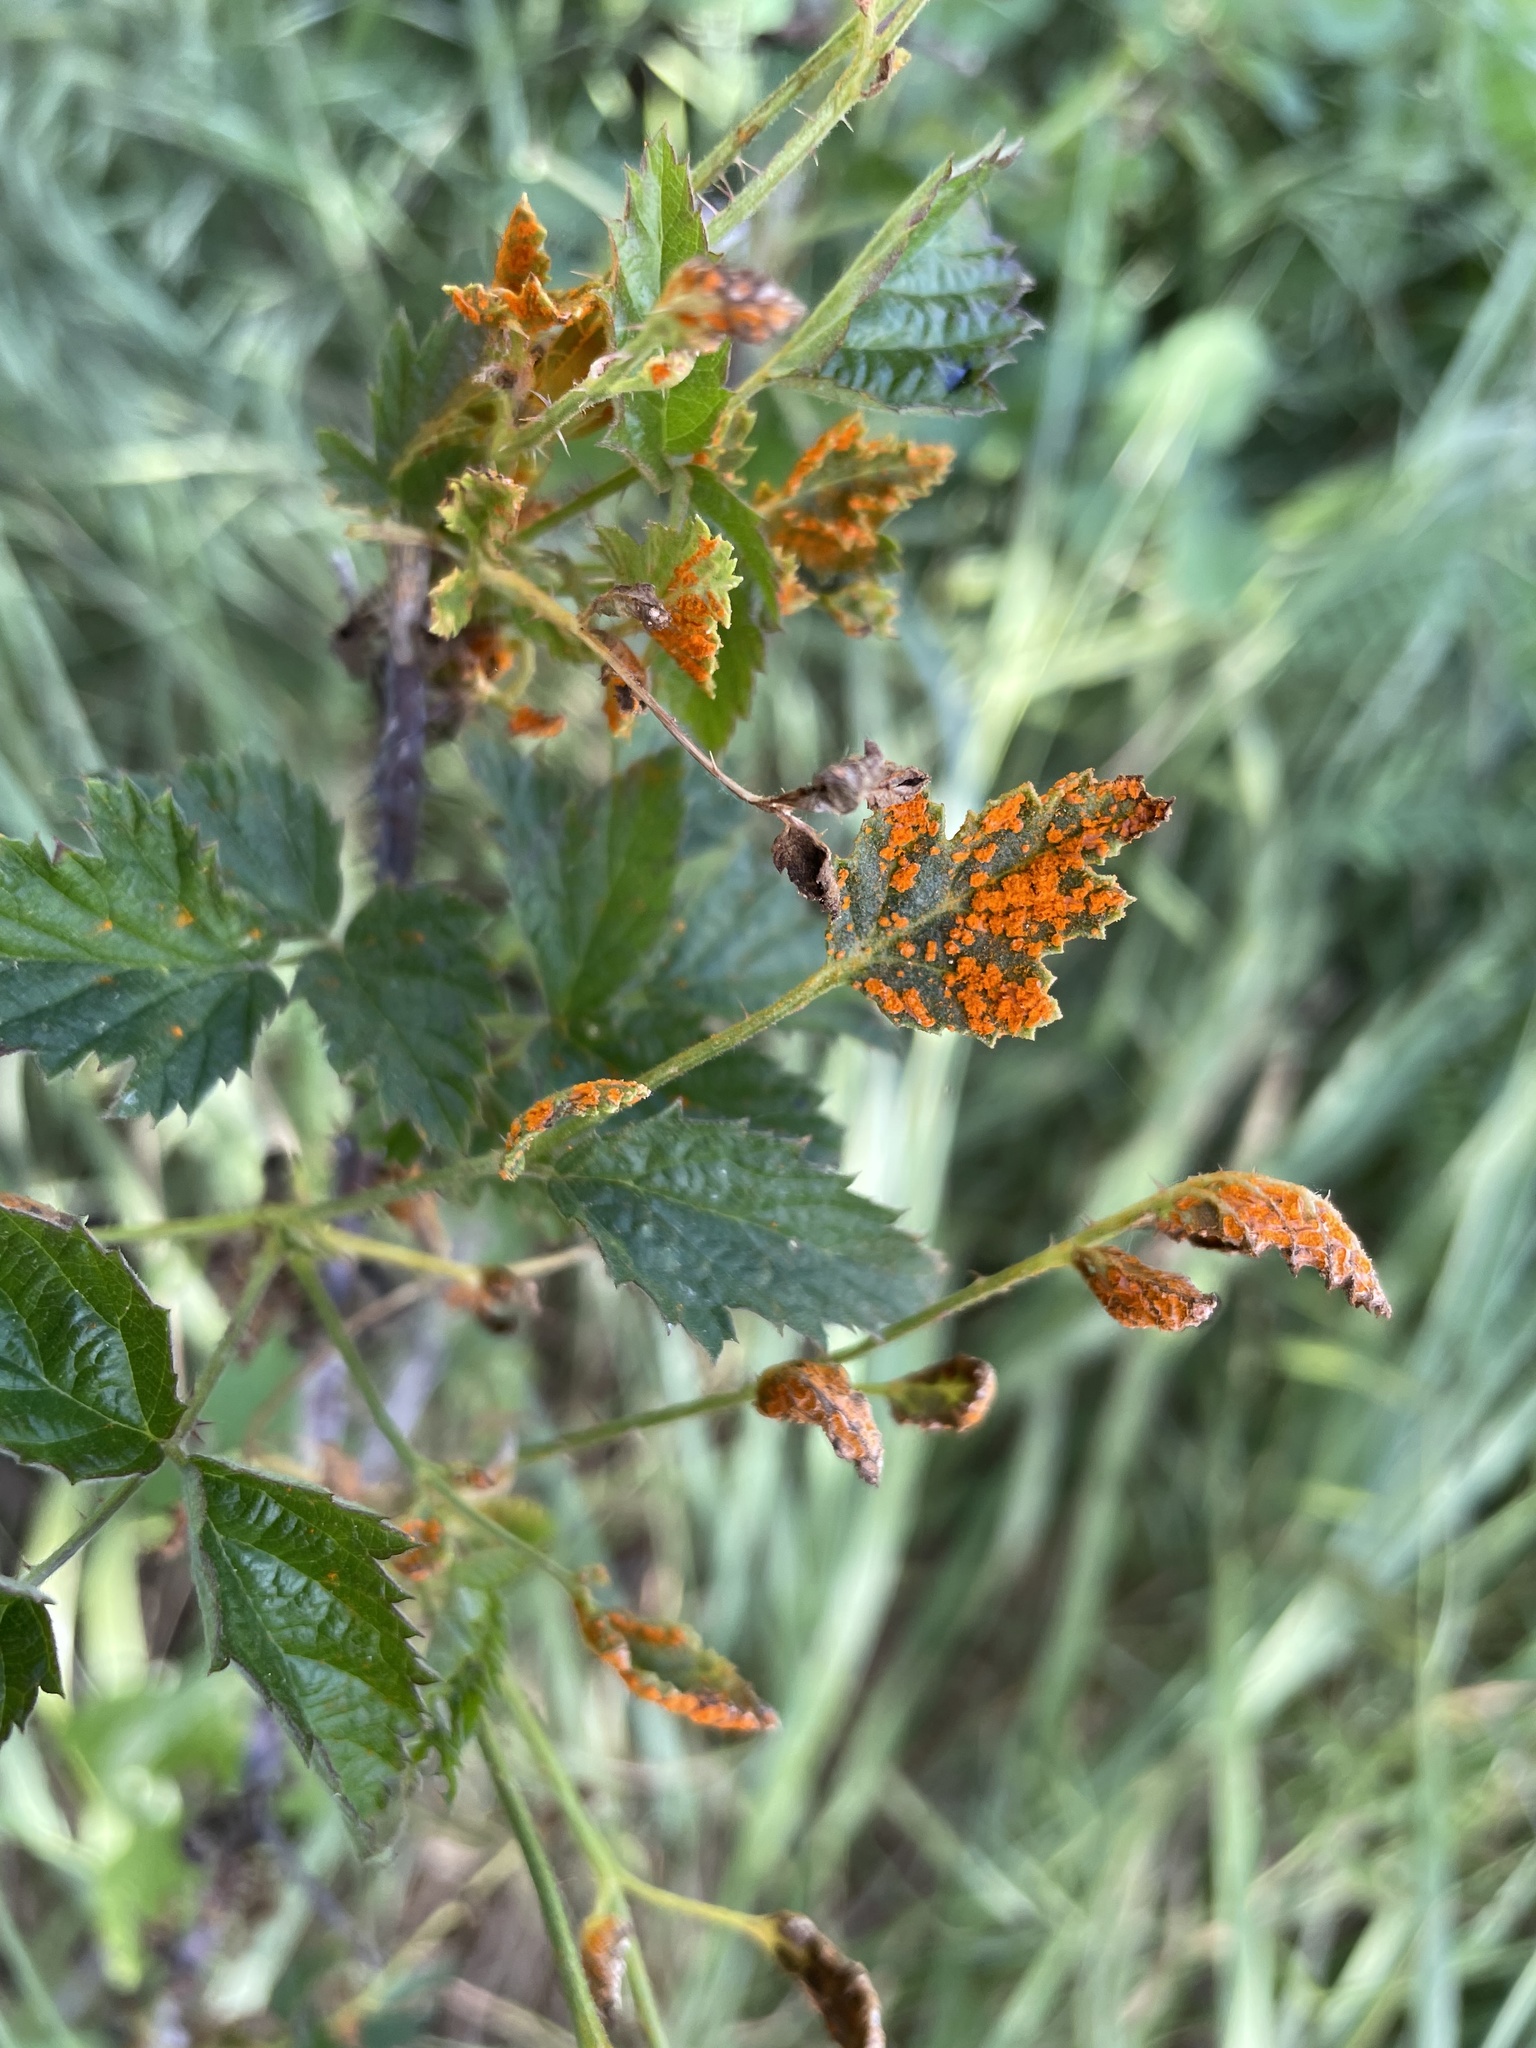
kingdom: Fungi
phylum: Basidiomycota
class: Pucciniomycetes
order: Pucciniales
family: Phragmidiaceae
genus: Arthuriomyces
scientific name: Arthuriomyces peckianus
